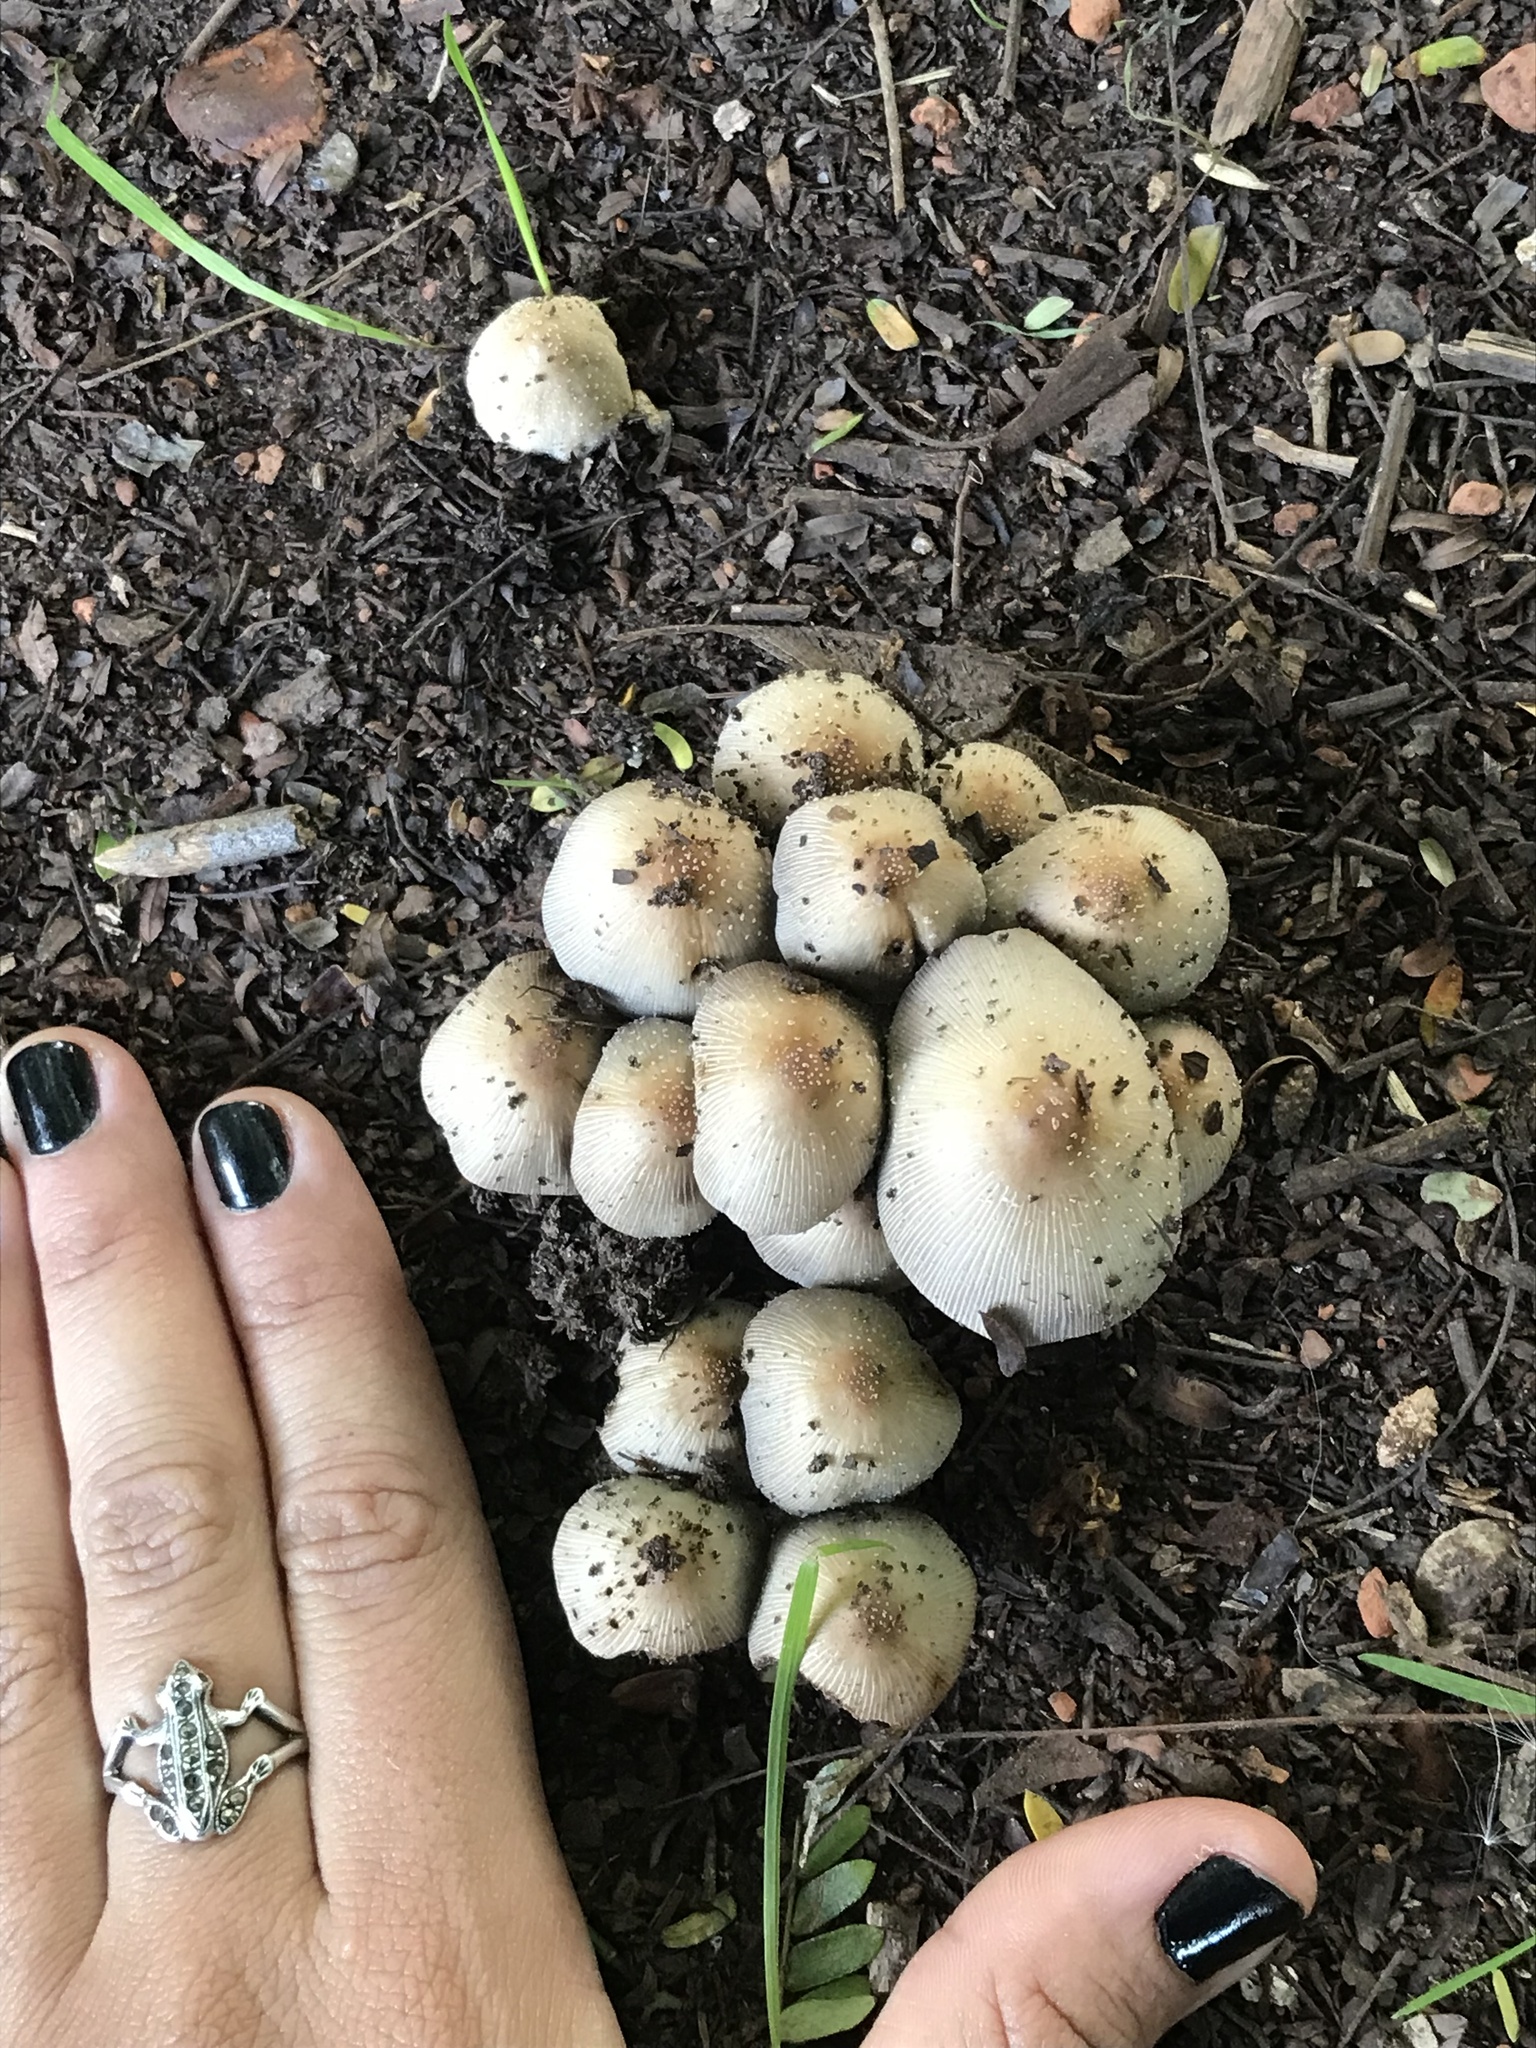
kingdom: Fungi
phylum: Basidiomycota
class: Agaricomycetes
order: Agaricales
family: Psathyrellaceae
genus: Coprinellus
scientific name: Coprinellus micaceus
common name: Glistening ink-cap
